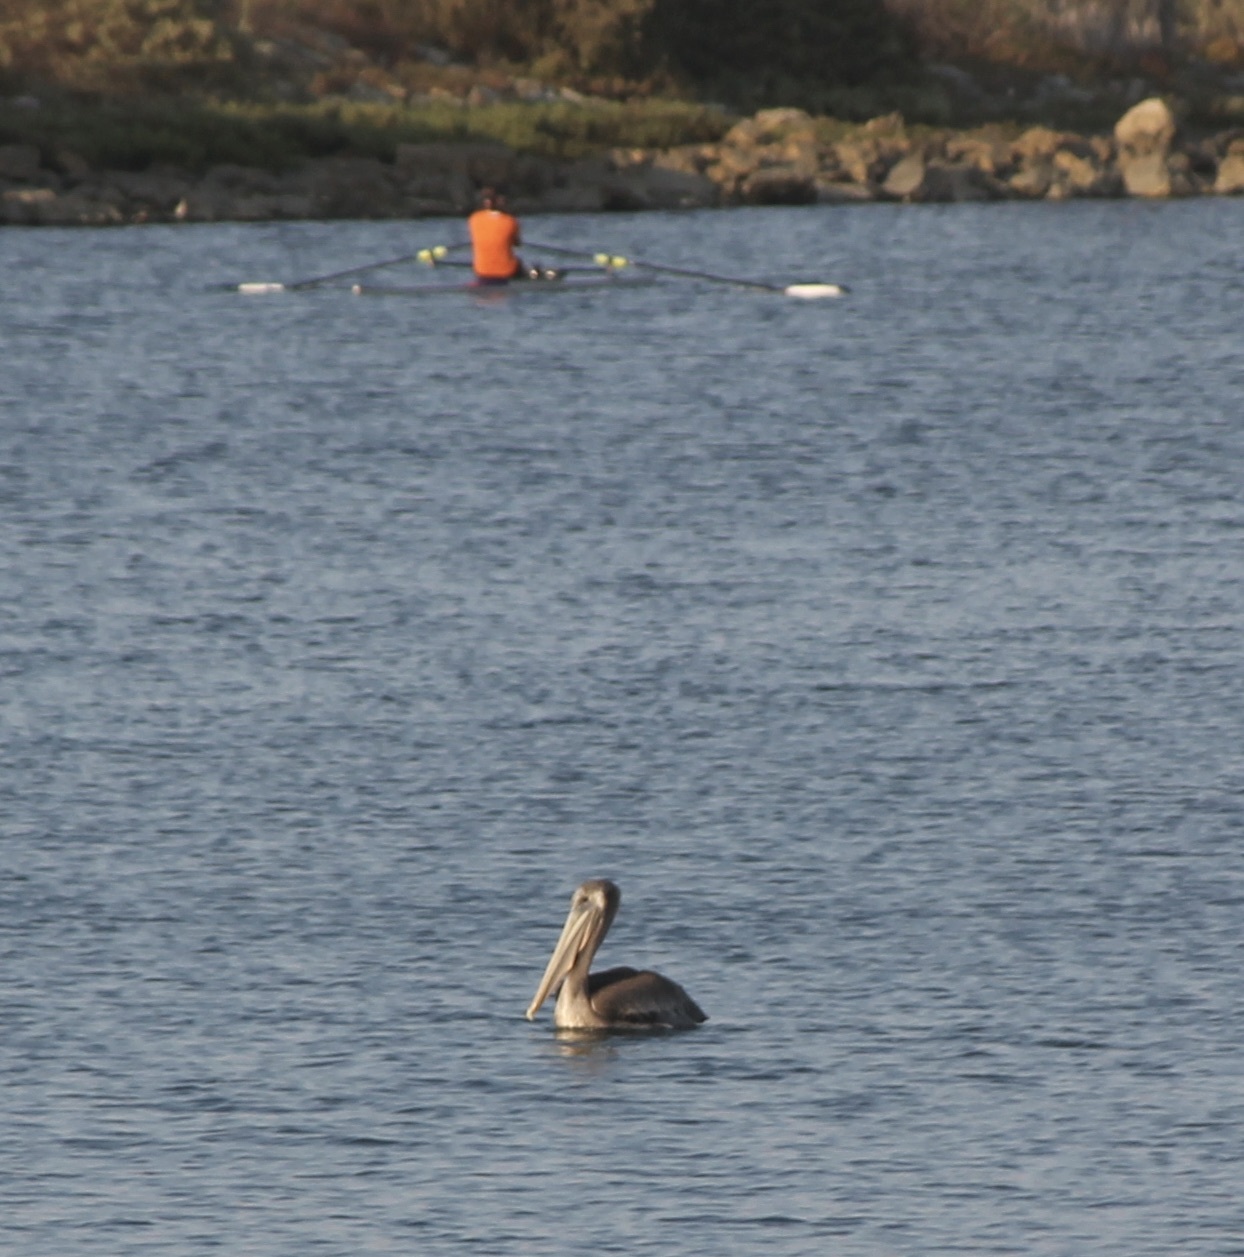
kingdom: Animalia
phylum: Chordata
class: Aves
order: Pelecaniformes
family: Pelecanidae
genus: Pelecanus
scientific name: Pelecanus occidentalis
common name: Brown pelican
